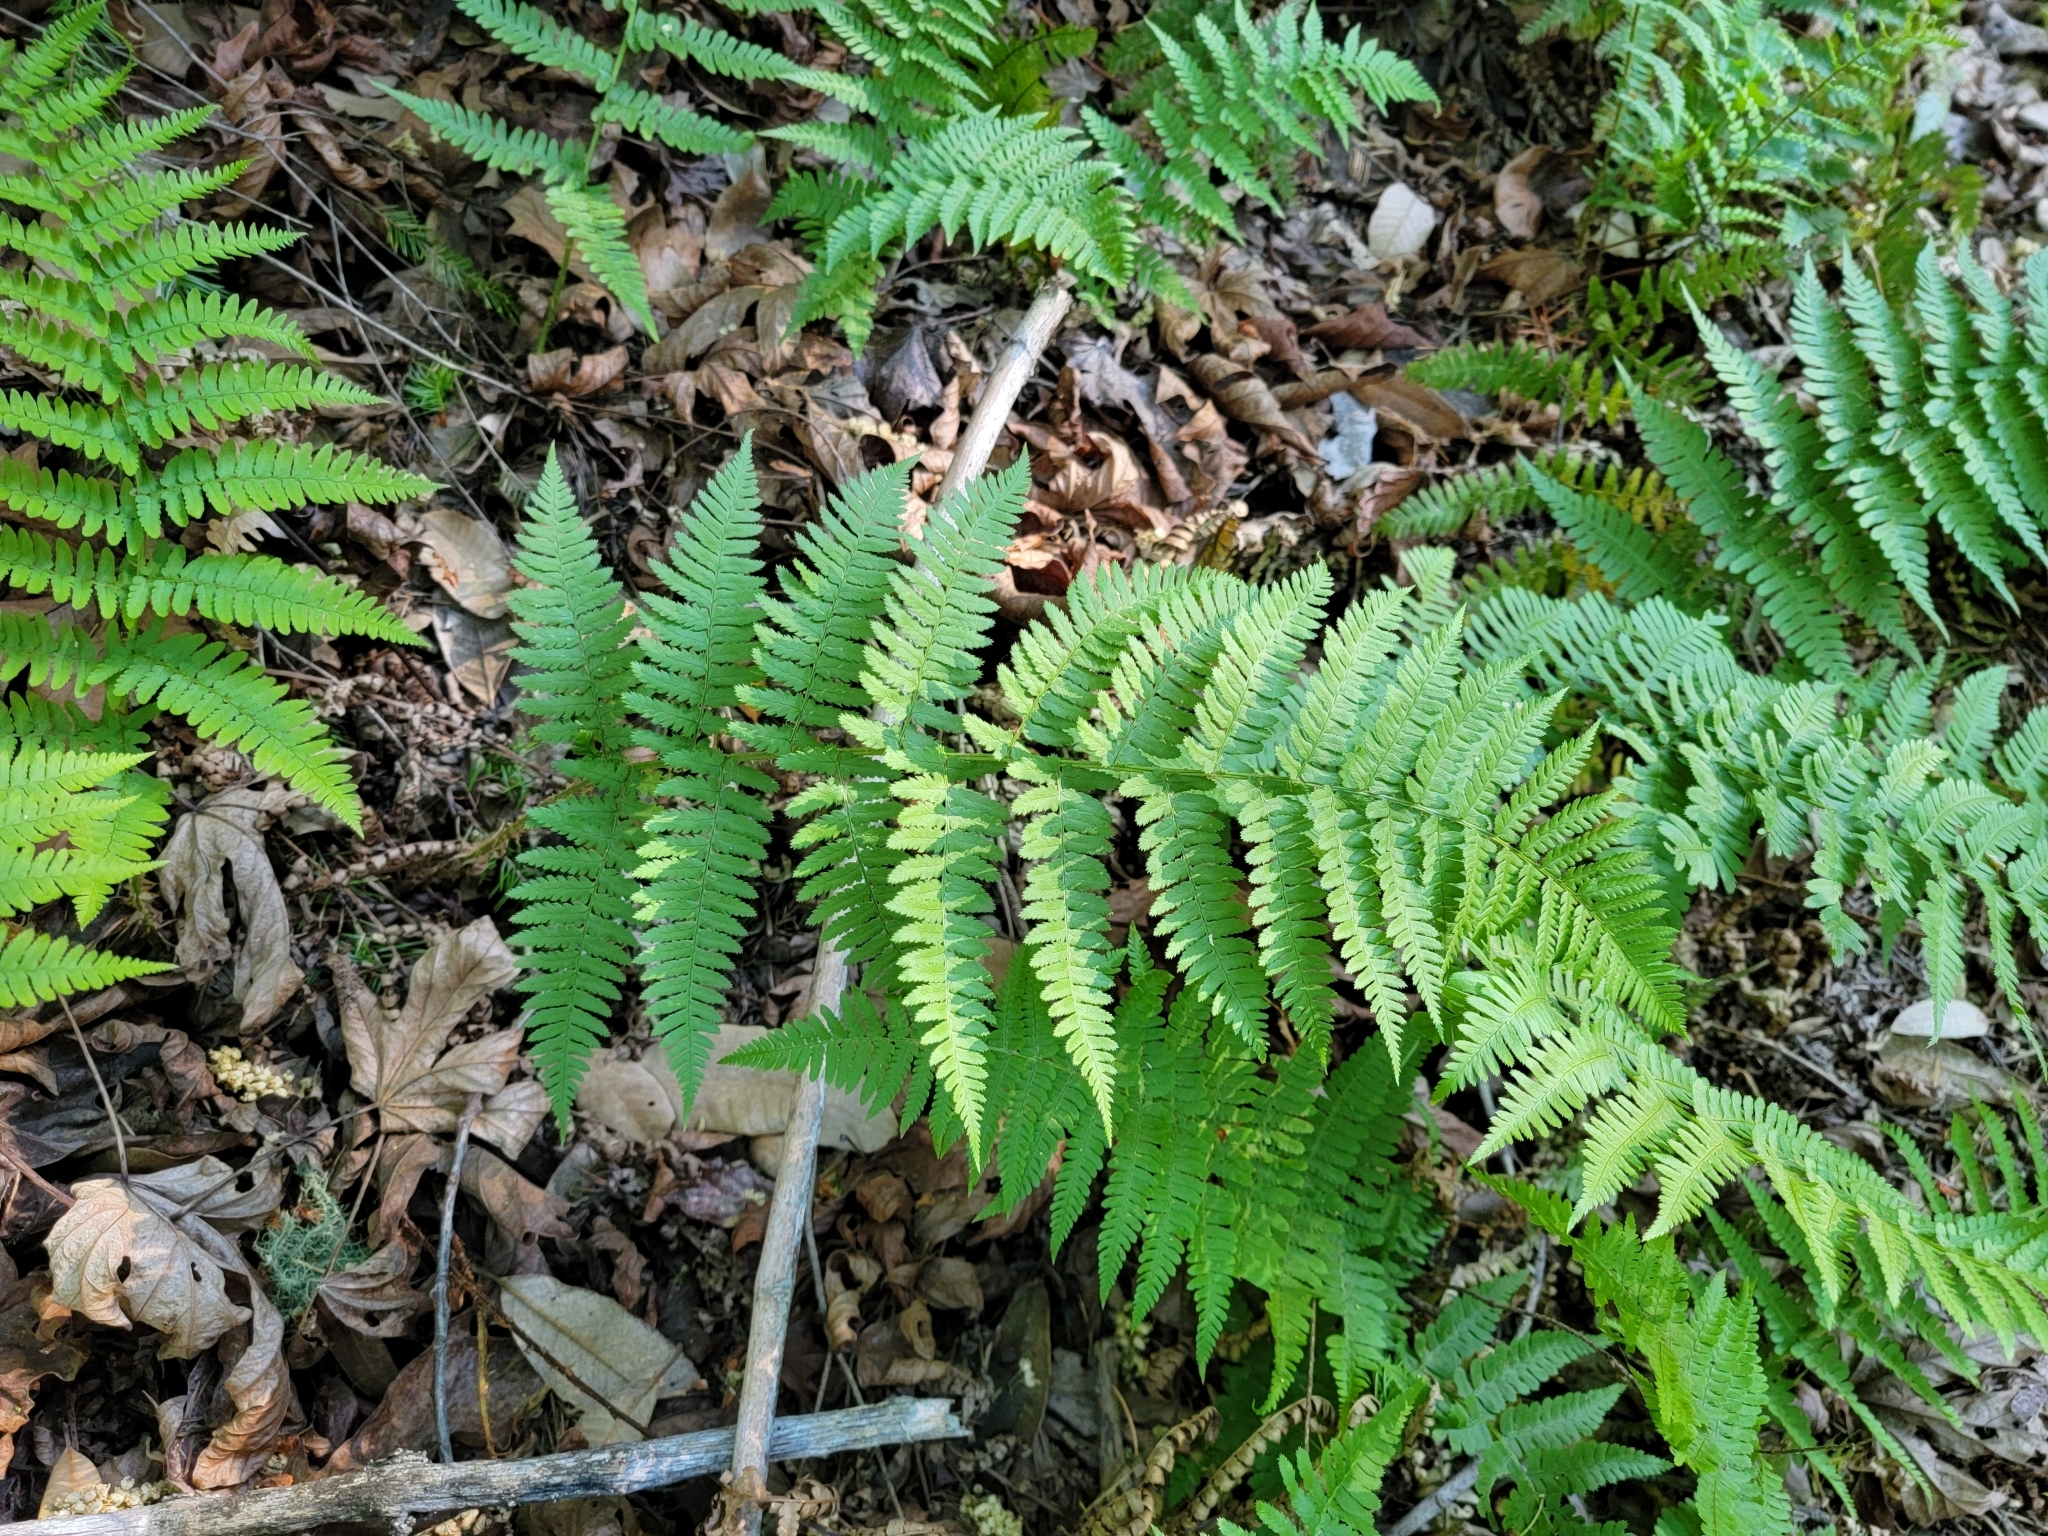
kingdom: Plantae
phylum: Tracheophyta
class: Polypodiopsida
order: Polypodiales
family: Dryopteridaceae
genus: Dryopteris
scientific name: Dryopteris arguta
